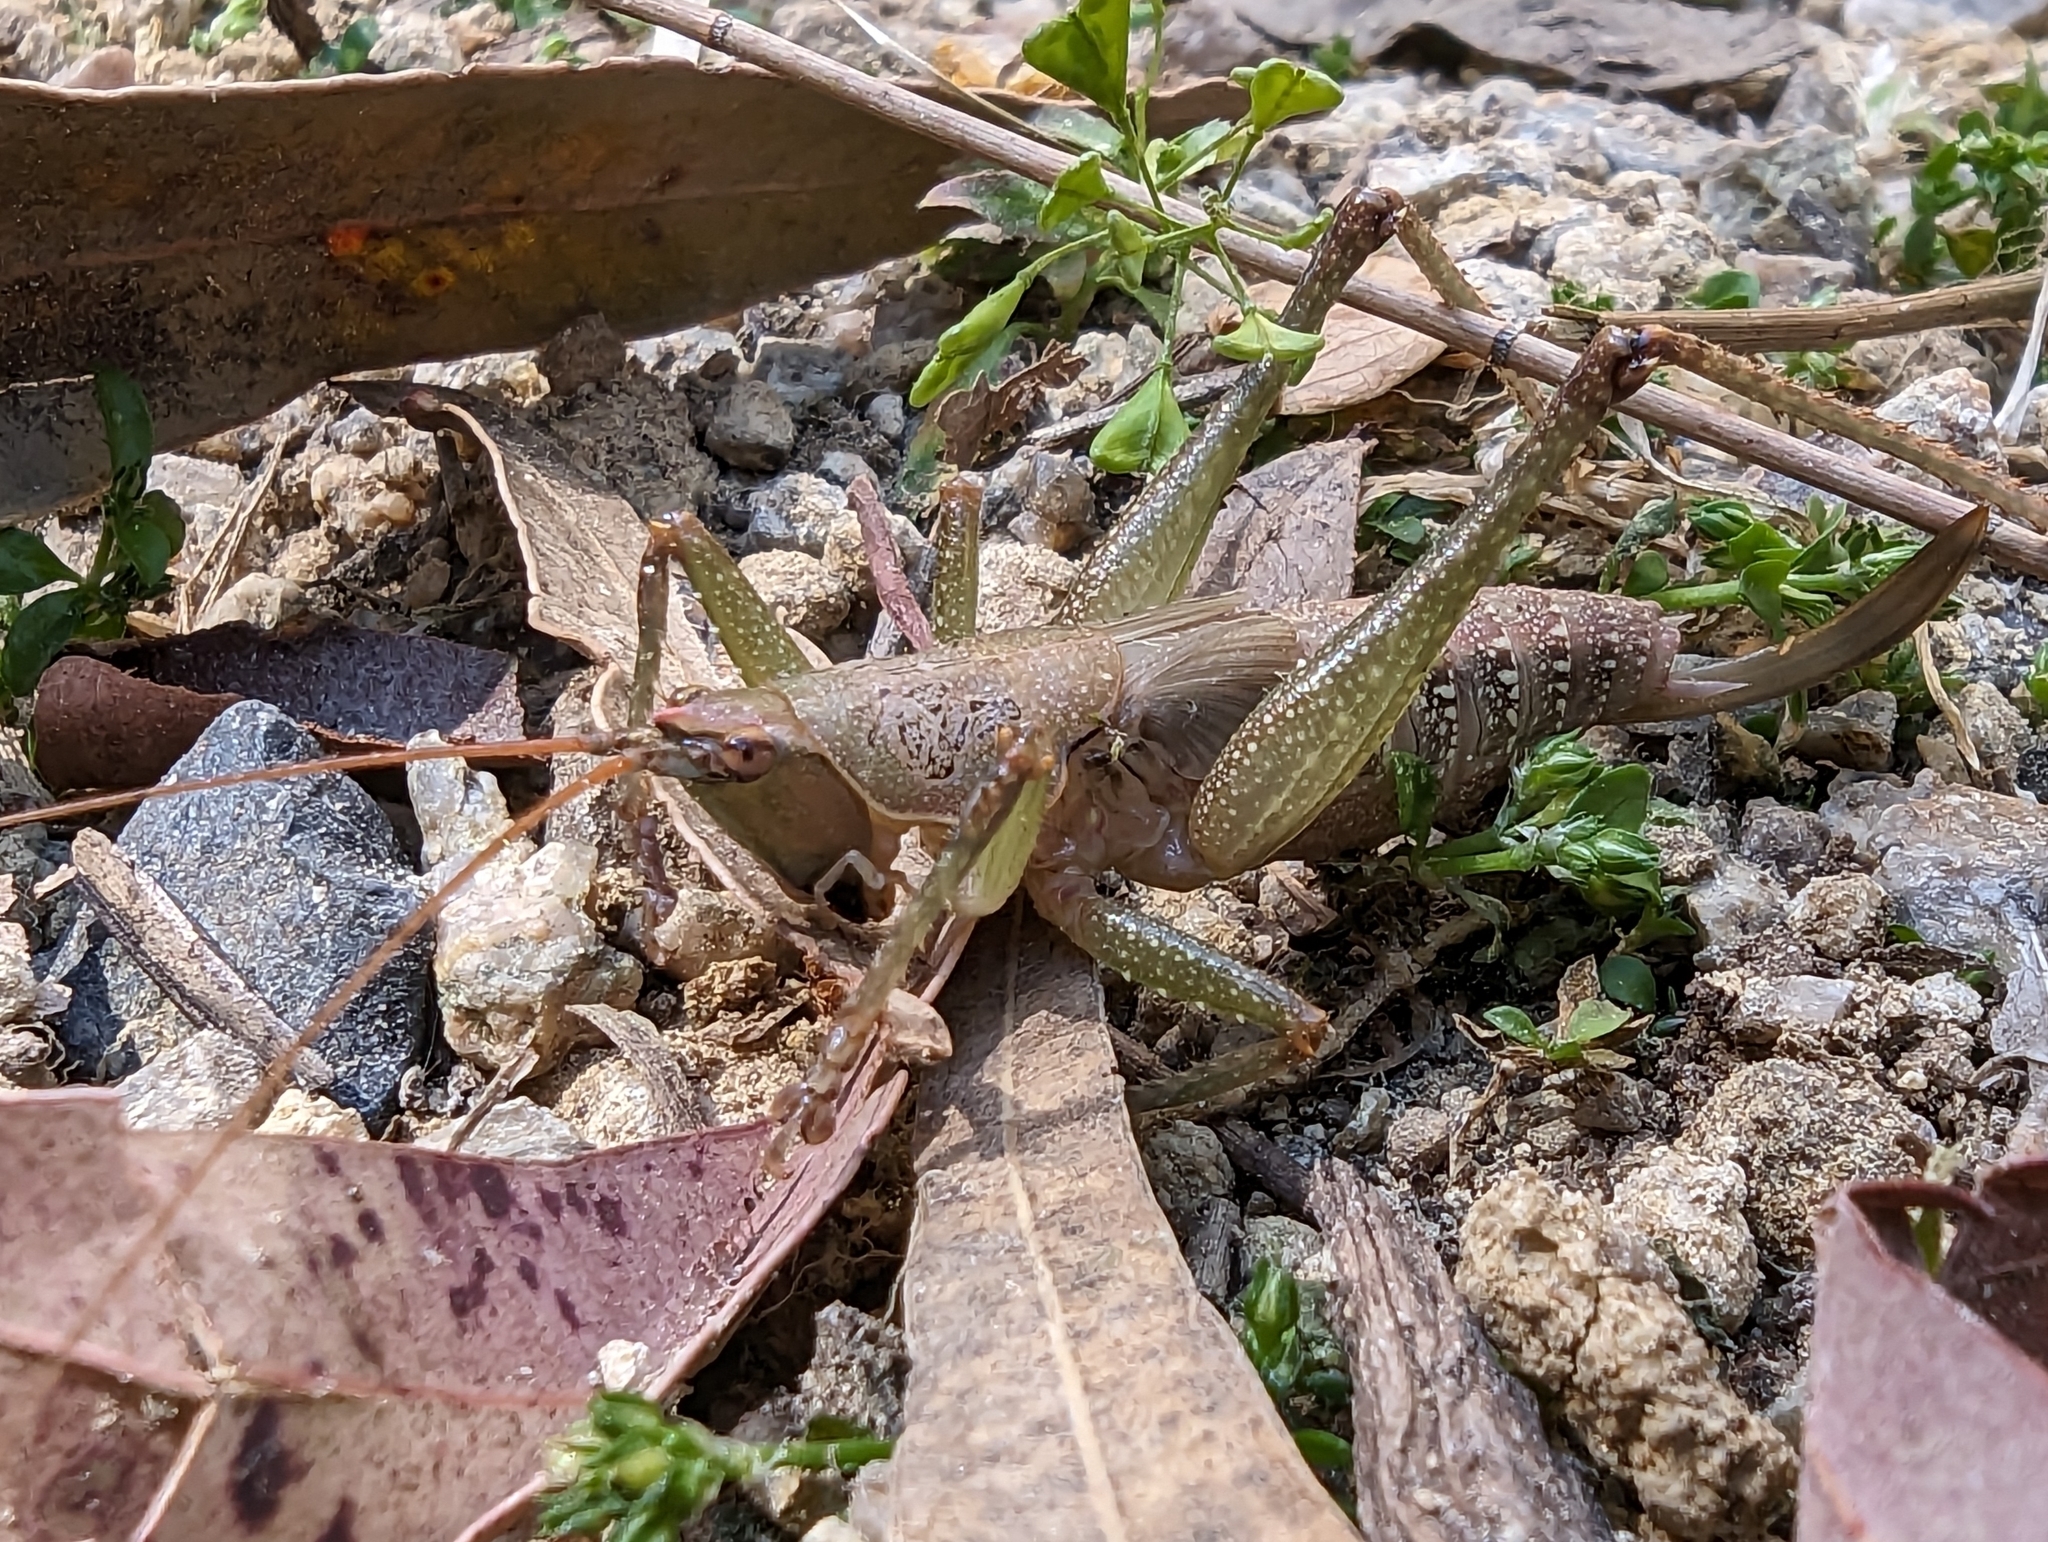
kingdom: Animalia
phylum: Arthropoda
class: Insecta
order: Orthoptera
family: Tettigoniidae
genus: Austrosalomona
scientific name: Austrosalomona falcata
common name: Olive-green coastal katydid
